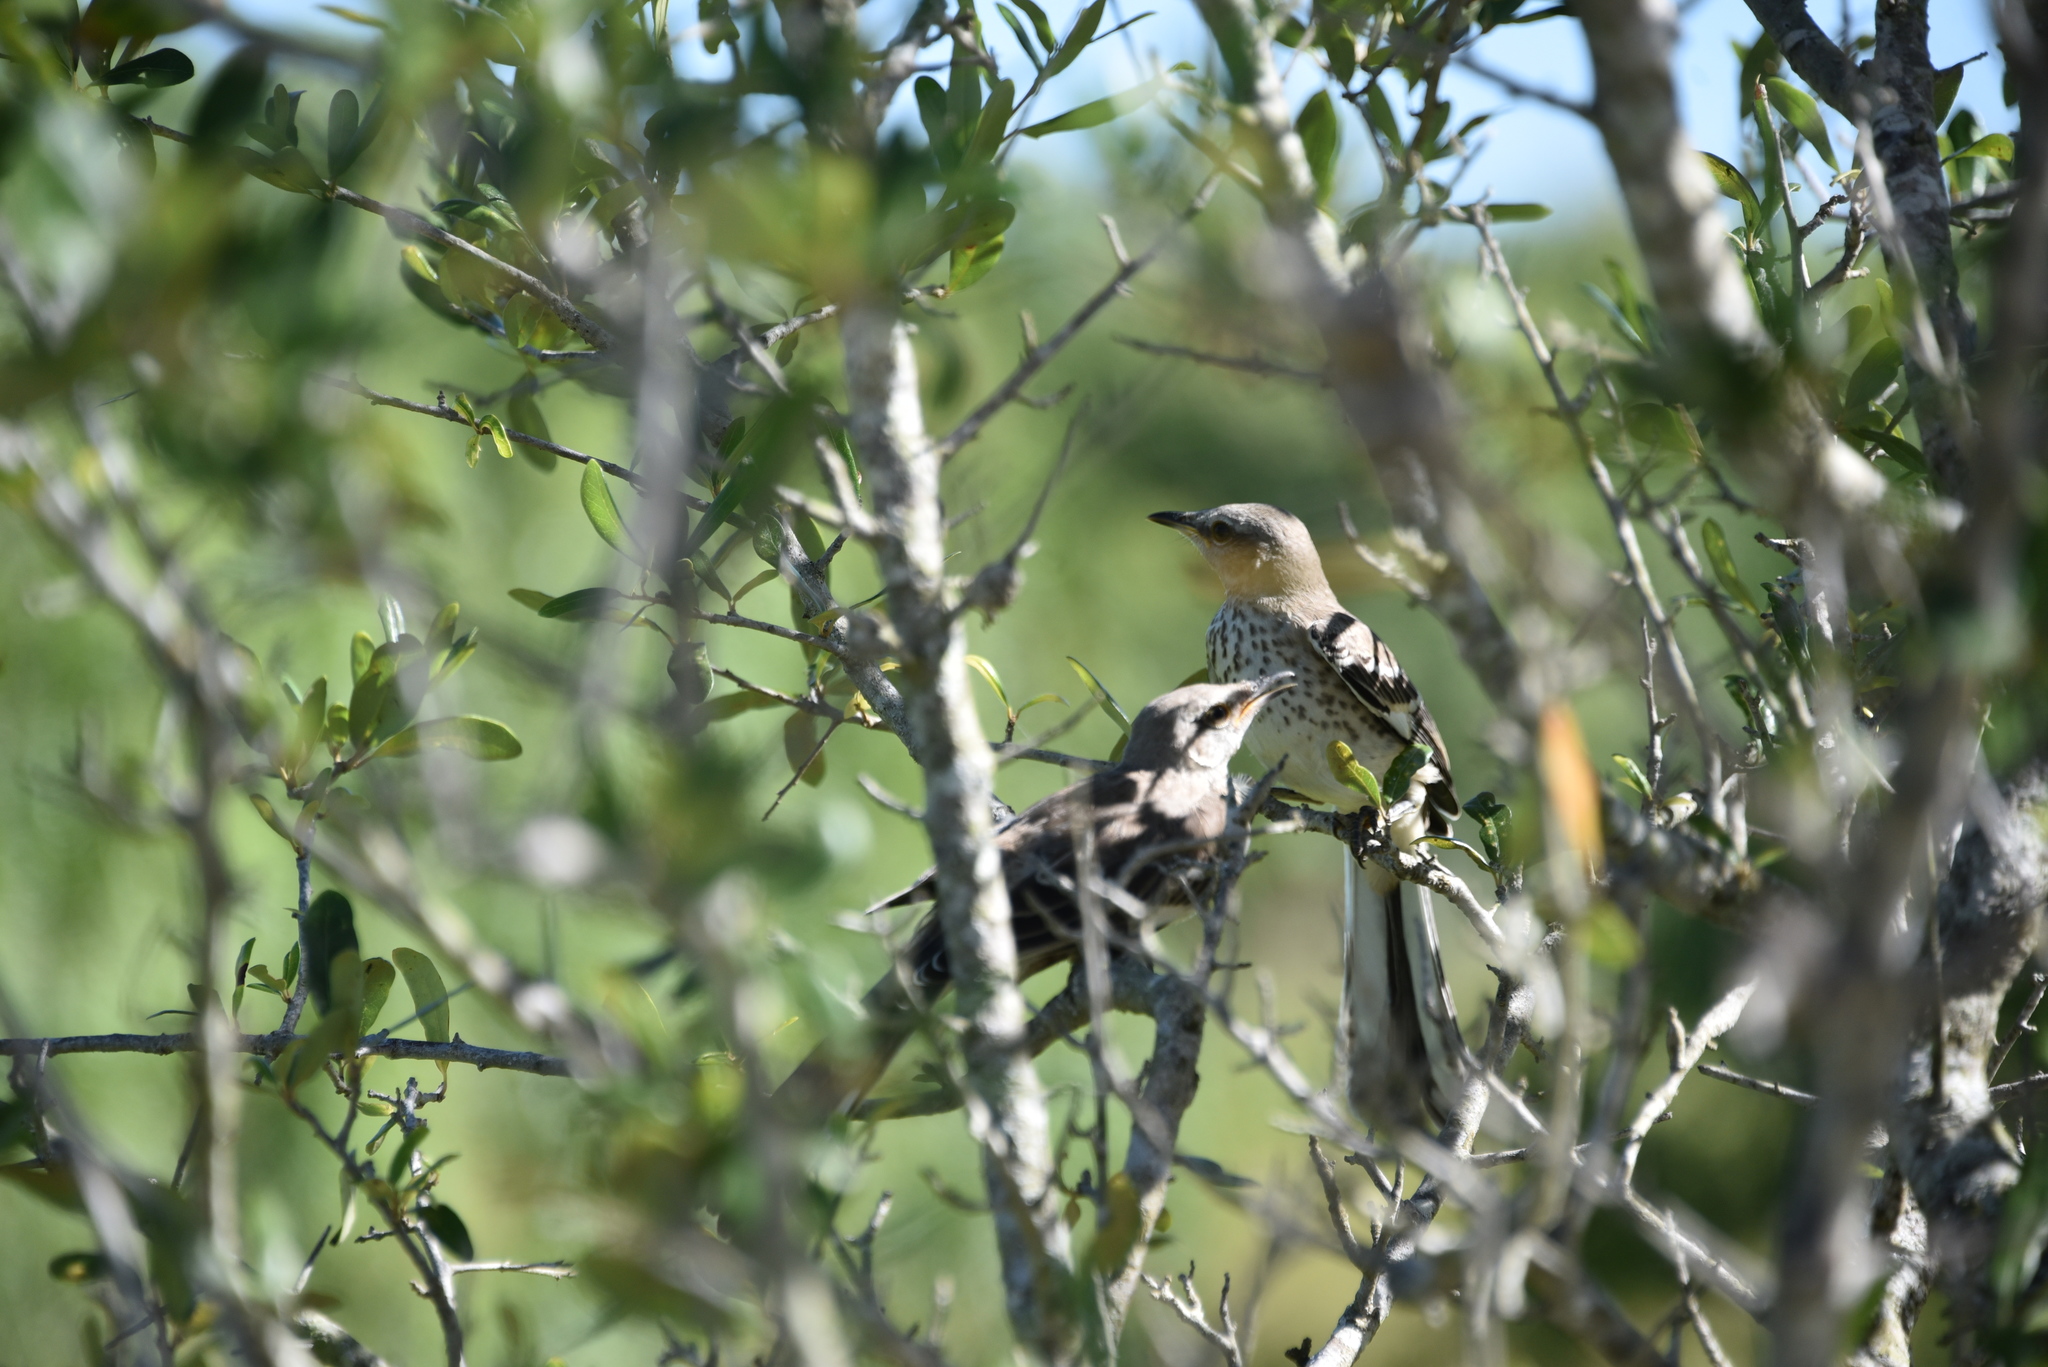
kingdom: Animalia
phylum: Chordata
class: Aves
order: Passeriformes
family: Mimidae
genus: Mimus
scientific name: Mimus polyglottos
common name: Northern mockingbird
